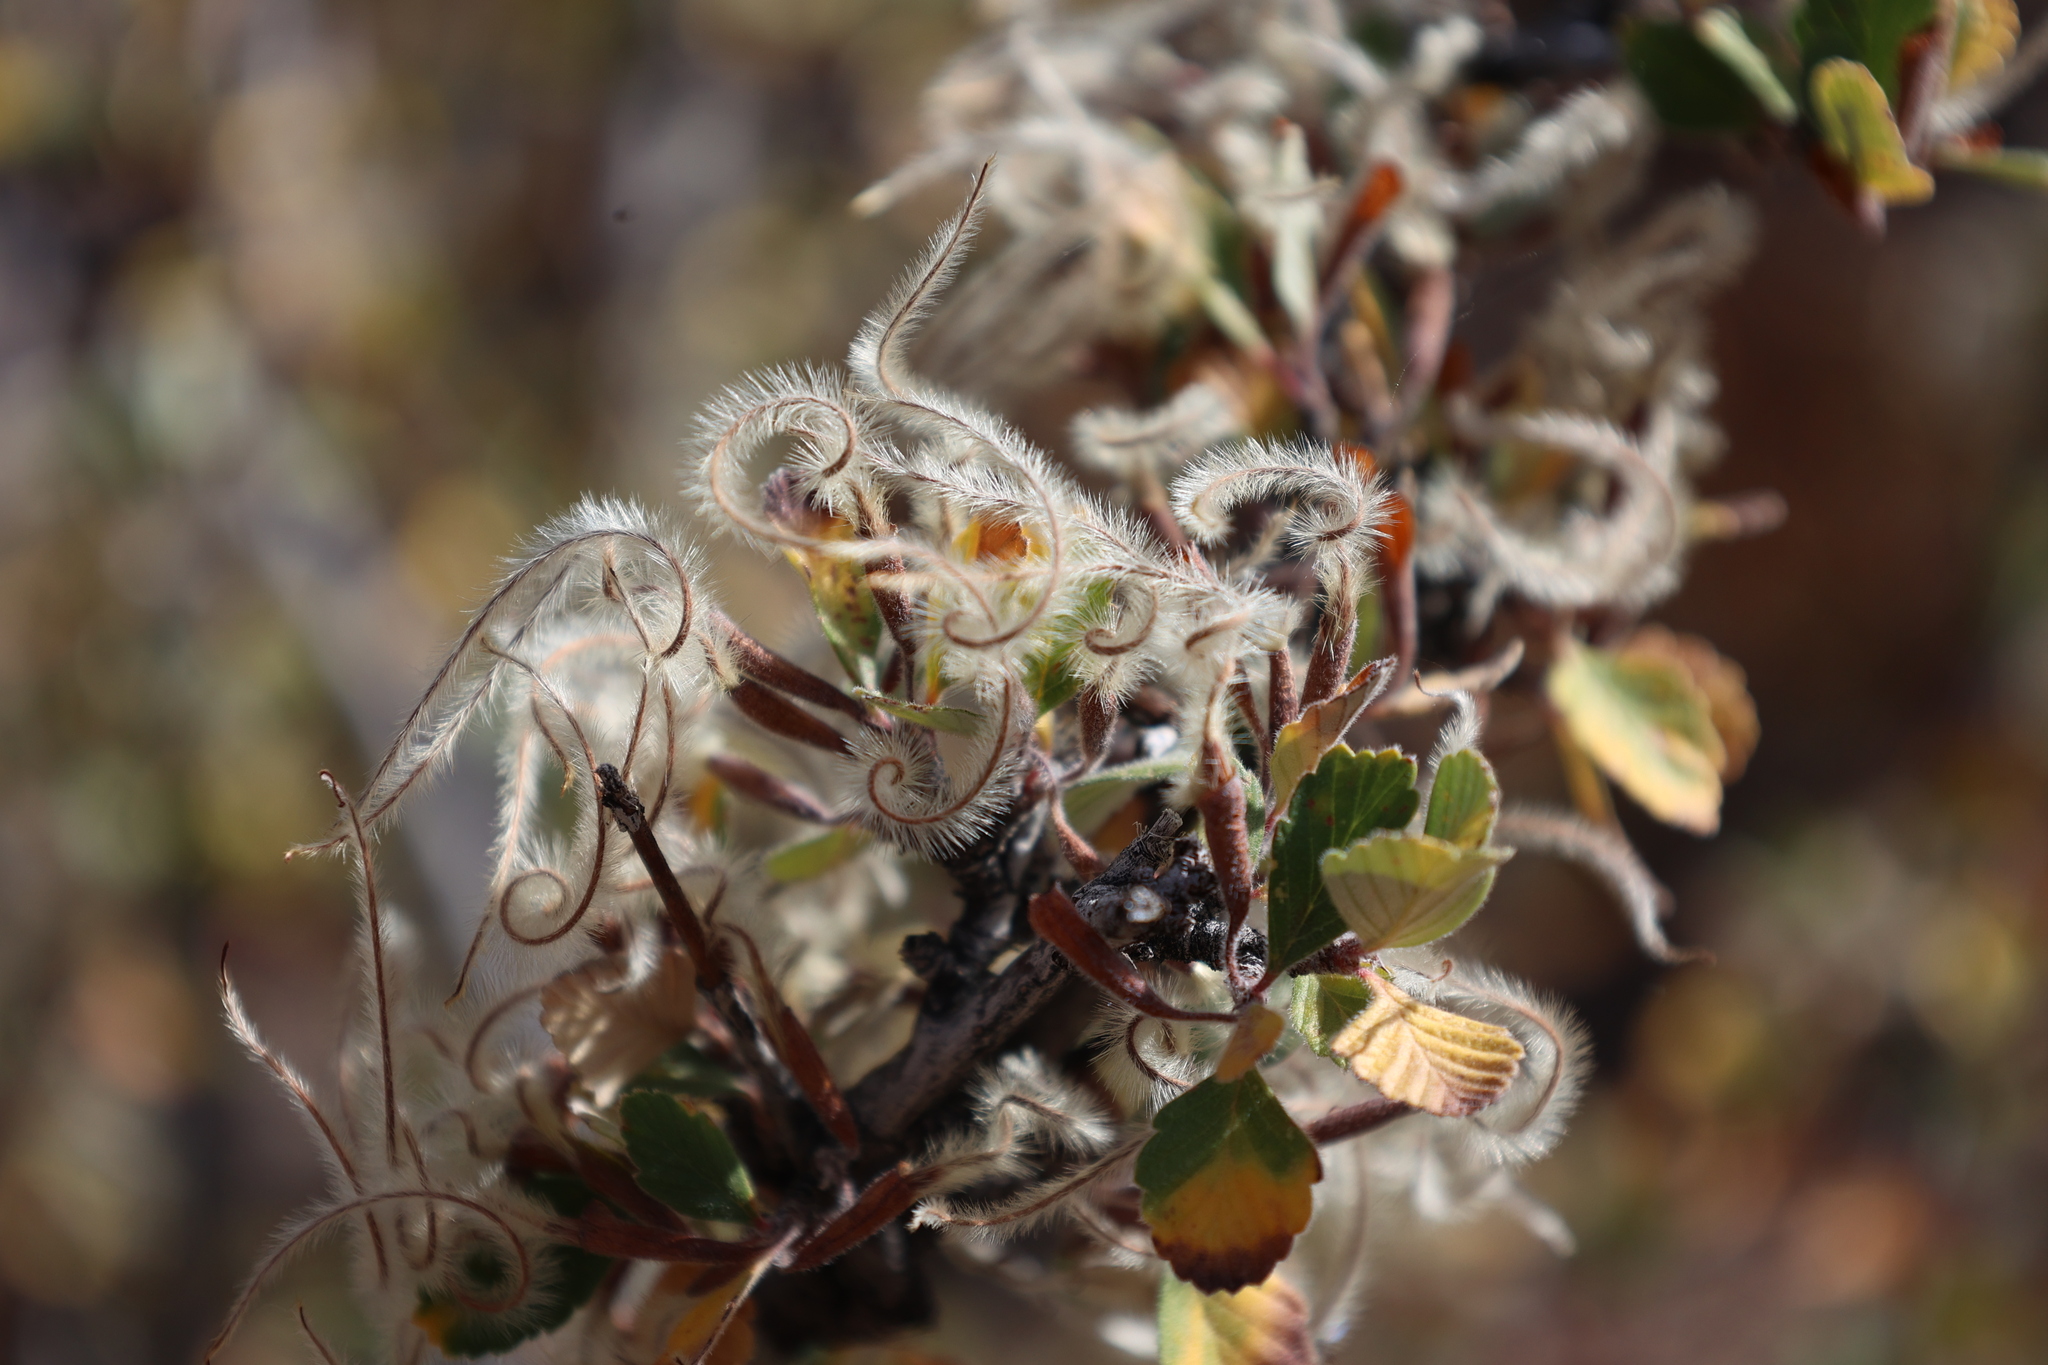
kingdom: Plantae
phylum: Tracheophyta
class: Magnoliopsida
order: Rosales
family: Rosaceae
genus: Cercocarpus
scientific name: Cercocarpus montanus
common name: Alder-leaf cercocarpus
